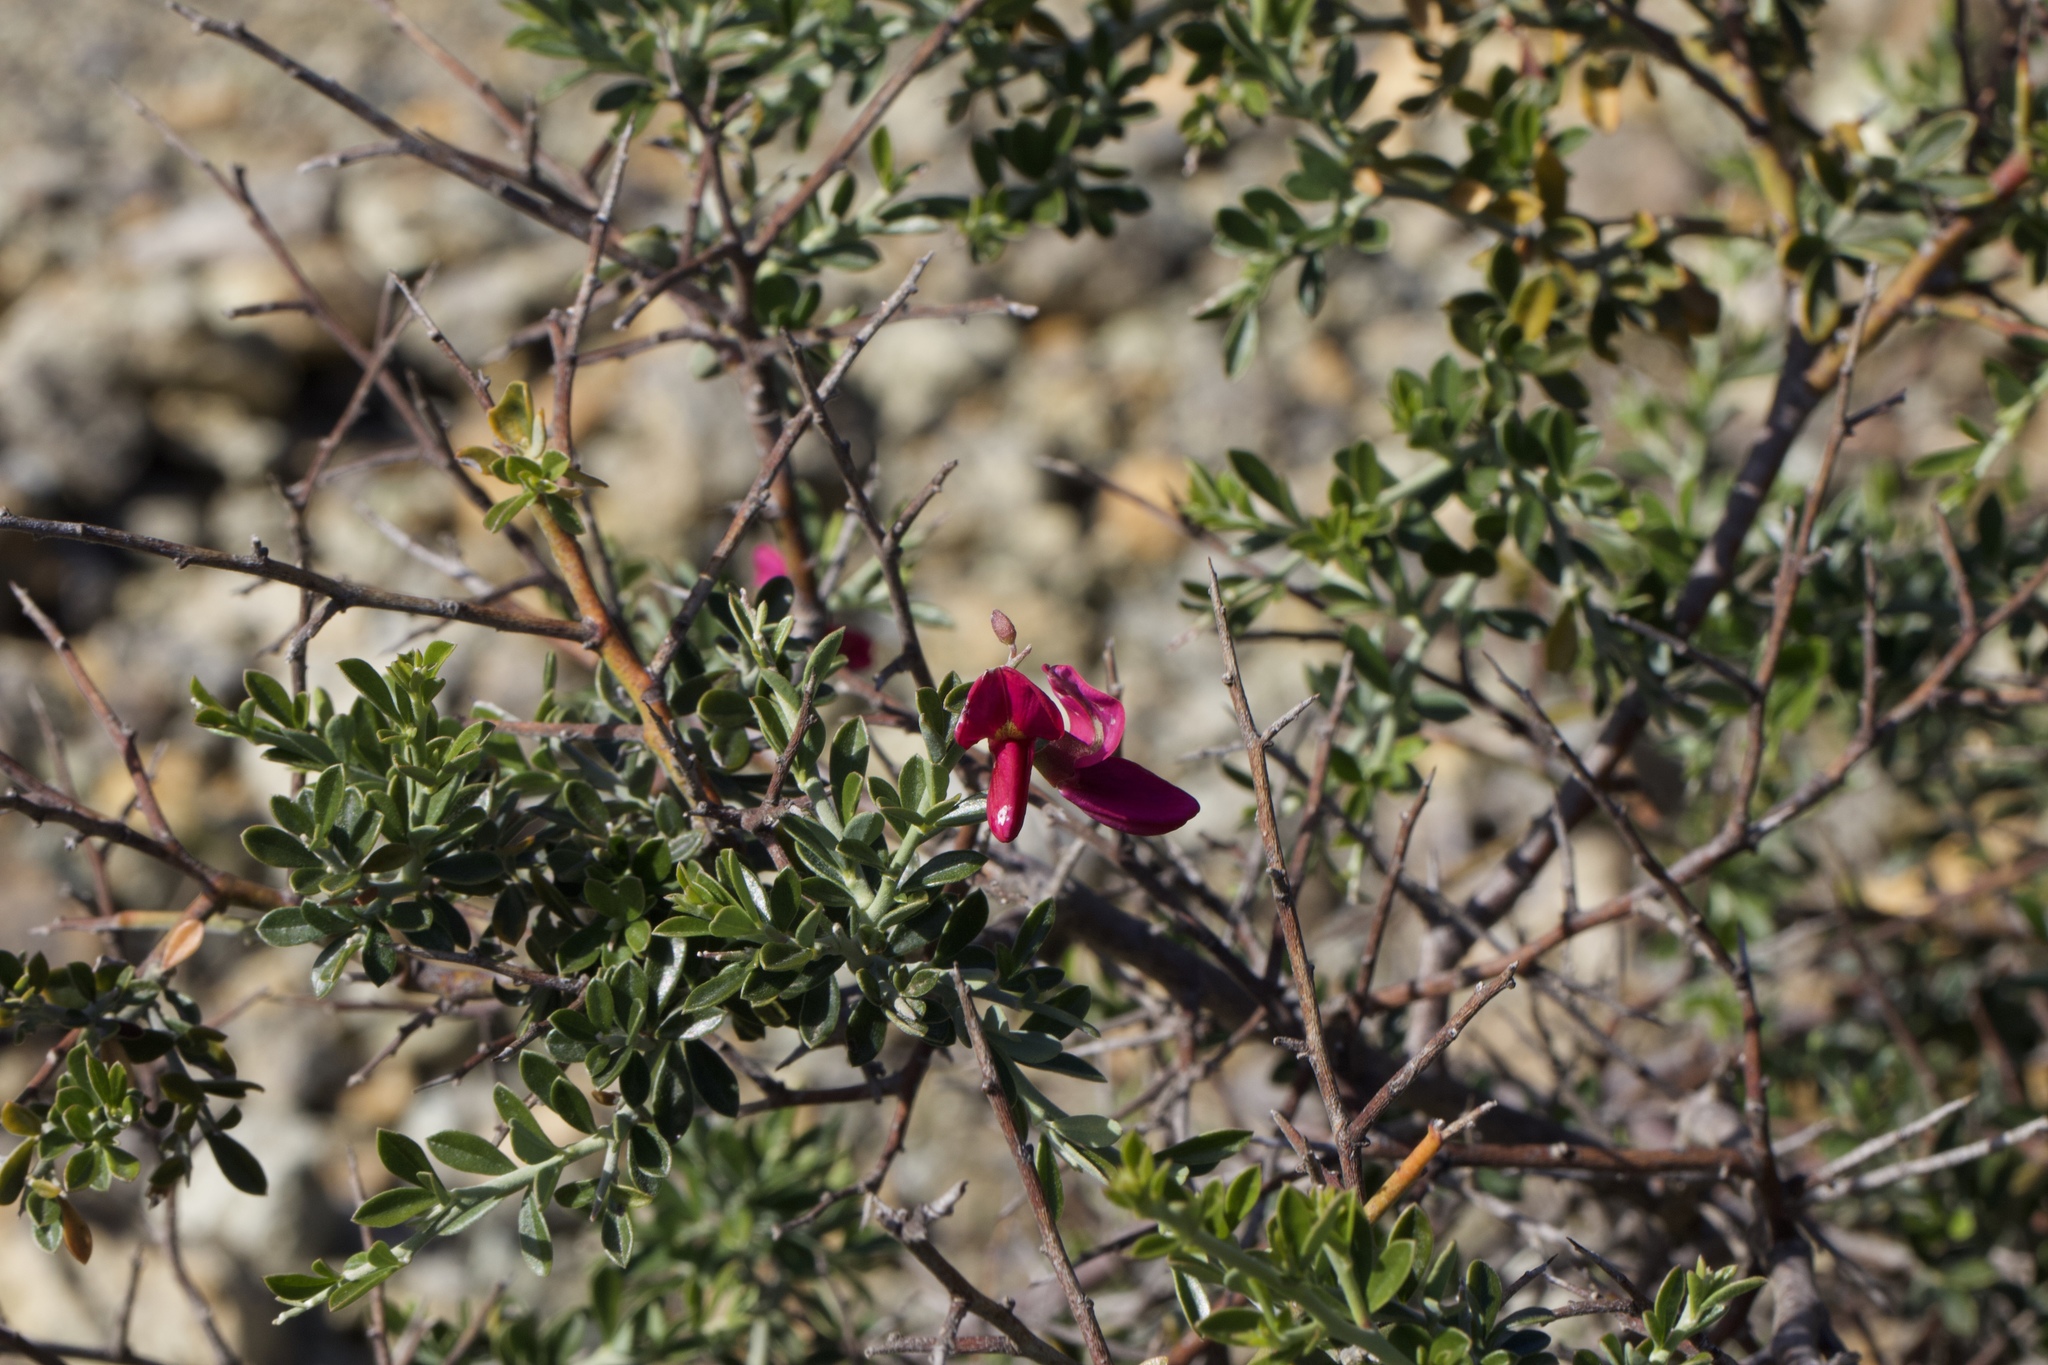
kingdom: Plantae
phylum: Tracheophyta
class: Magnoliopsida
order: Fabales
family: Fabaceae
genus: Pickeringia
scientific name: Pickeringia montana
